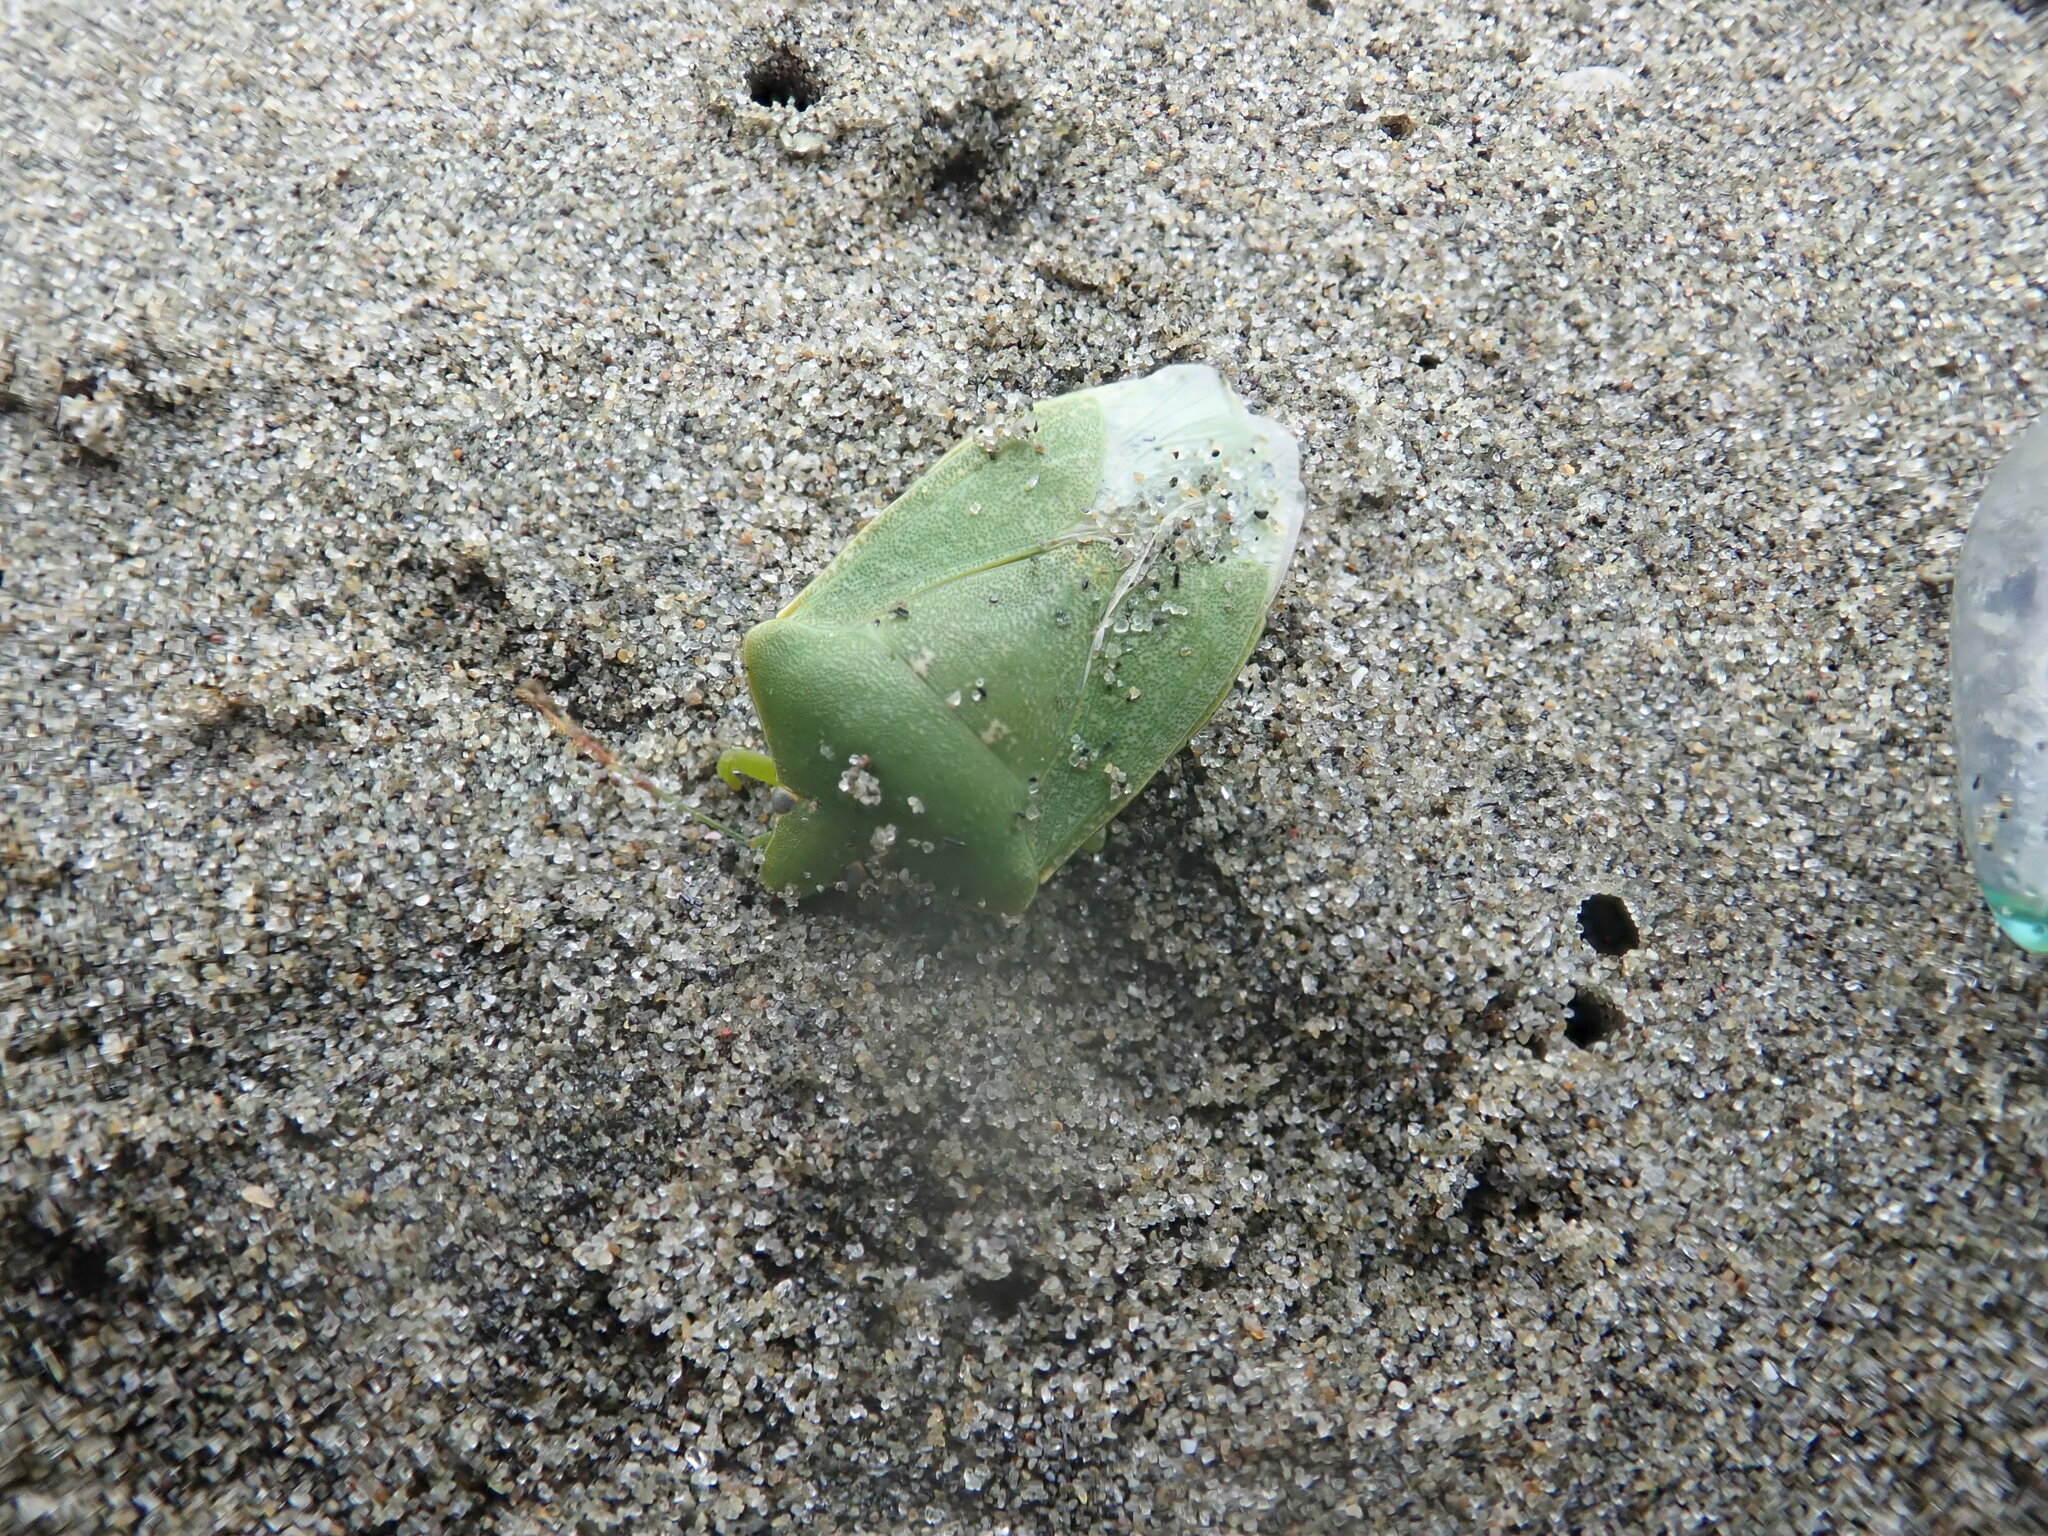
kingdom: Animalia
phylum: Arthropoda
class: Insecta
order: Hemiptera
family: Pentatomidae
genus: Nezara
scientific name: Nezara viridula
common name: Southern green stink bug
